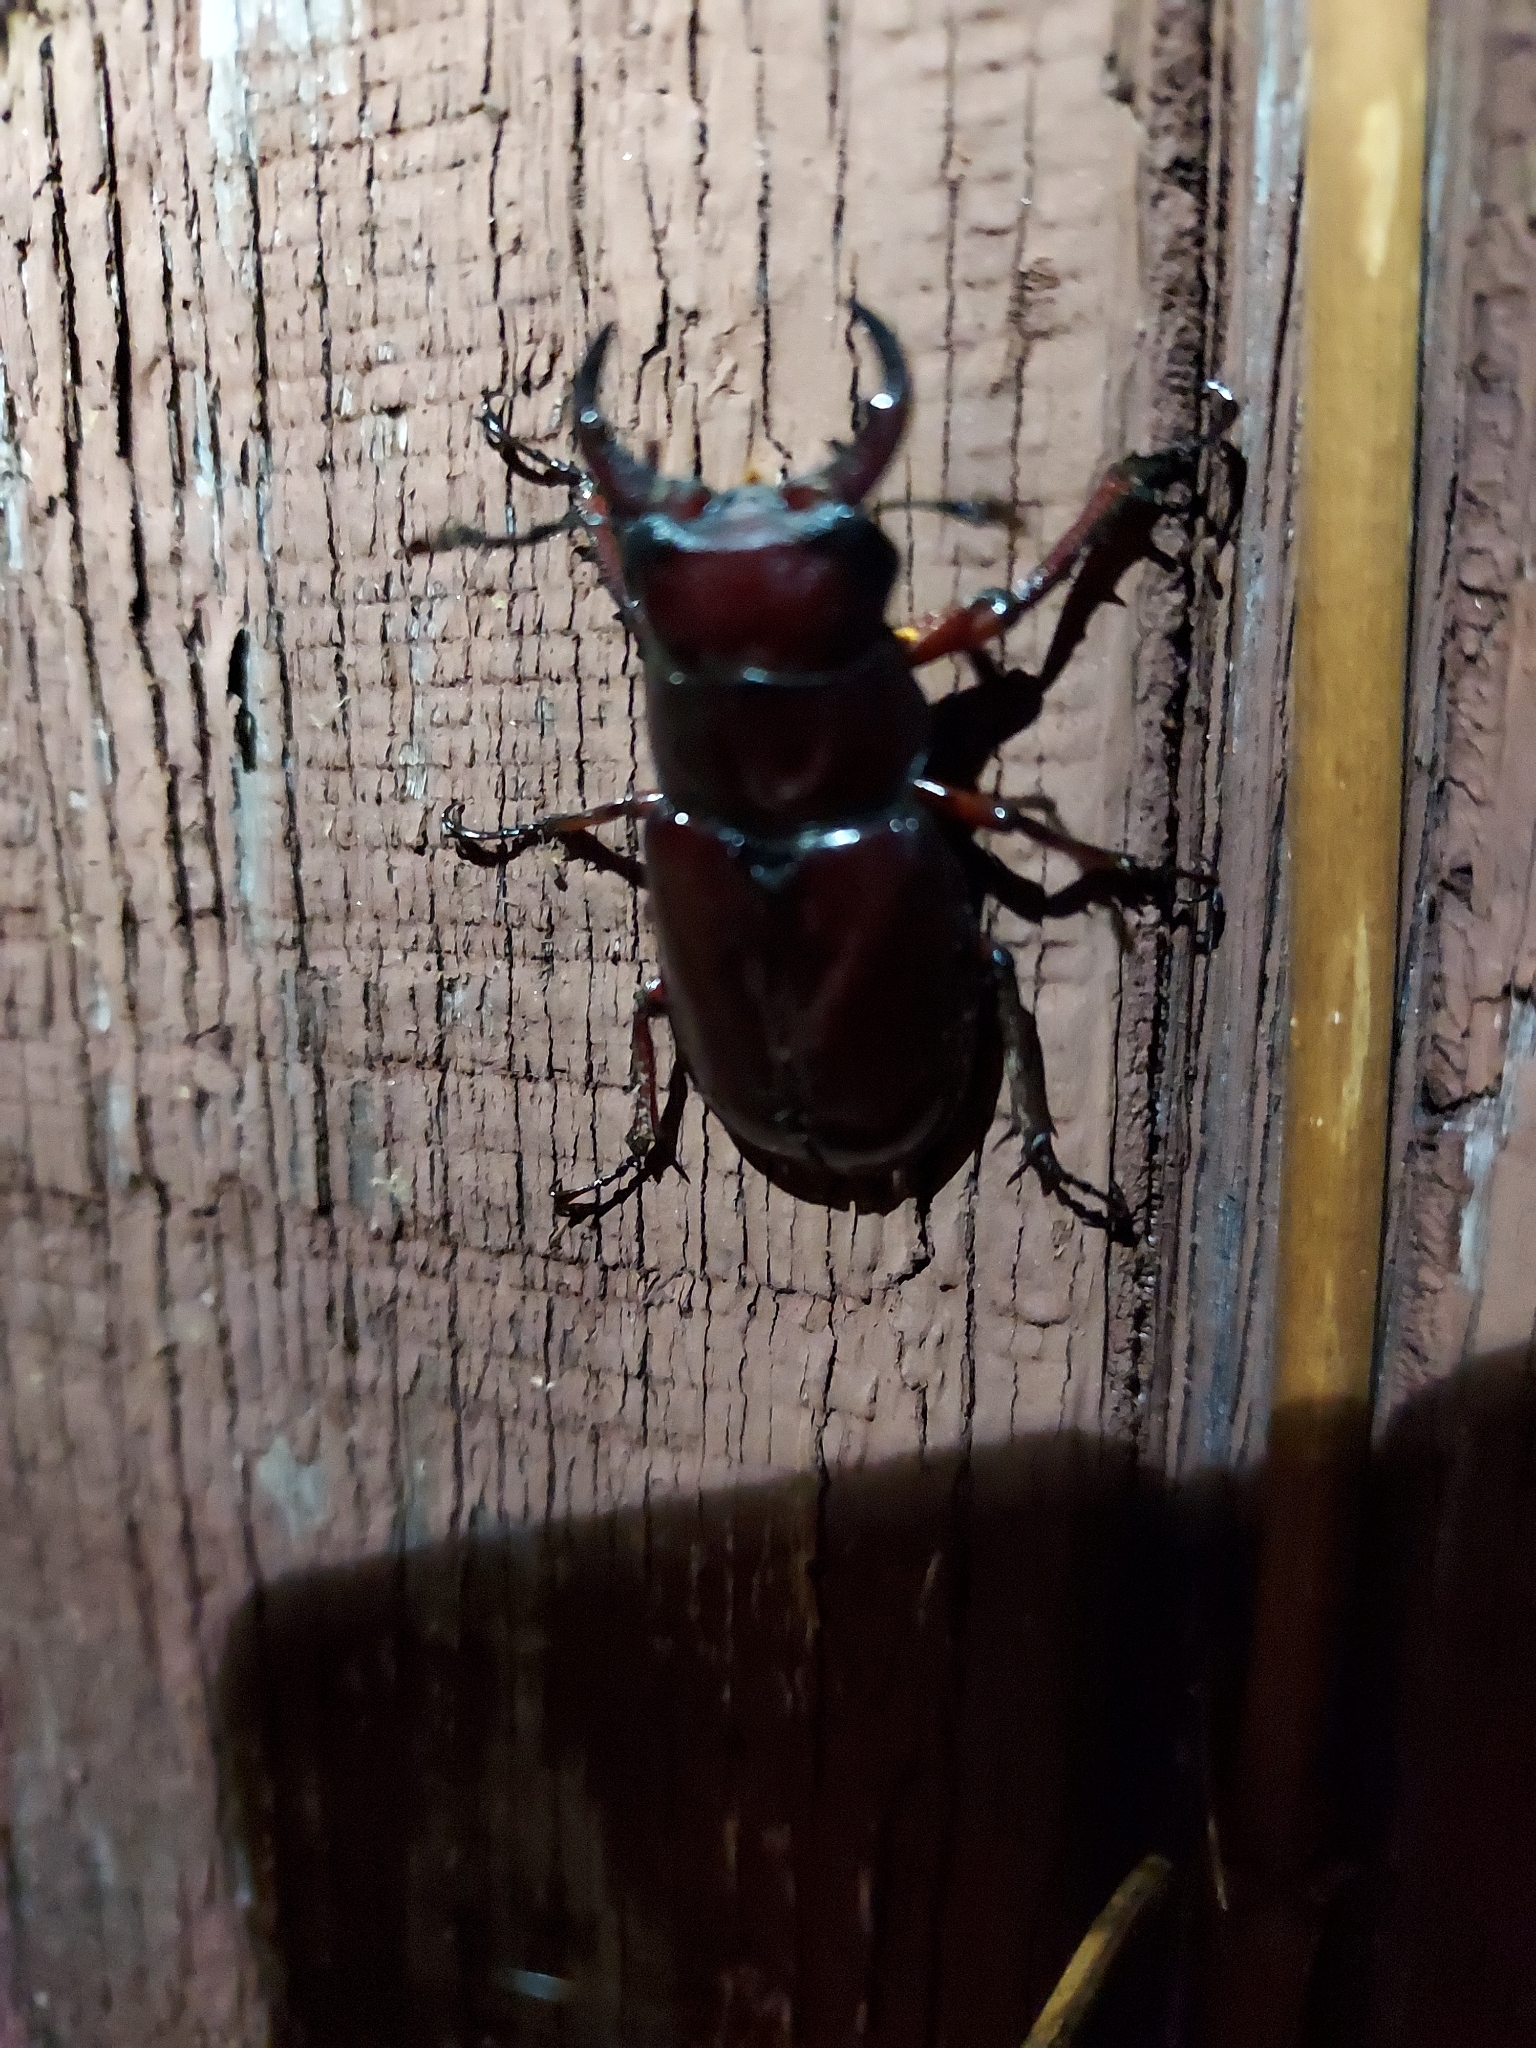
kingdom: Animalia
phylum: Arthropoda
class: Insecta
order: Coleoptera
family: Lucanidae
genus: Lucanus
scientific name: Lucanus capreolus
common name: Stag beetle
